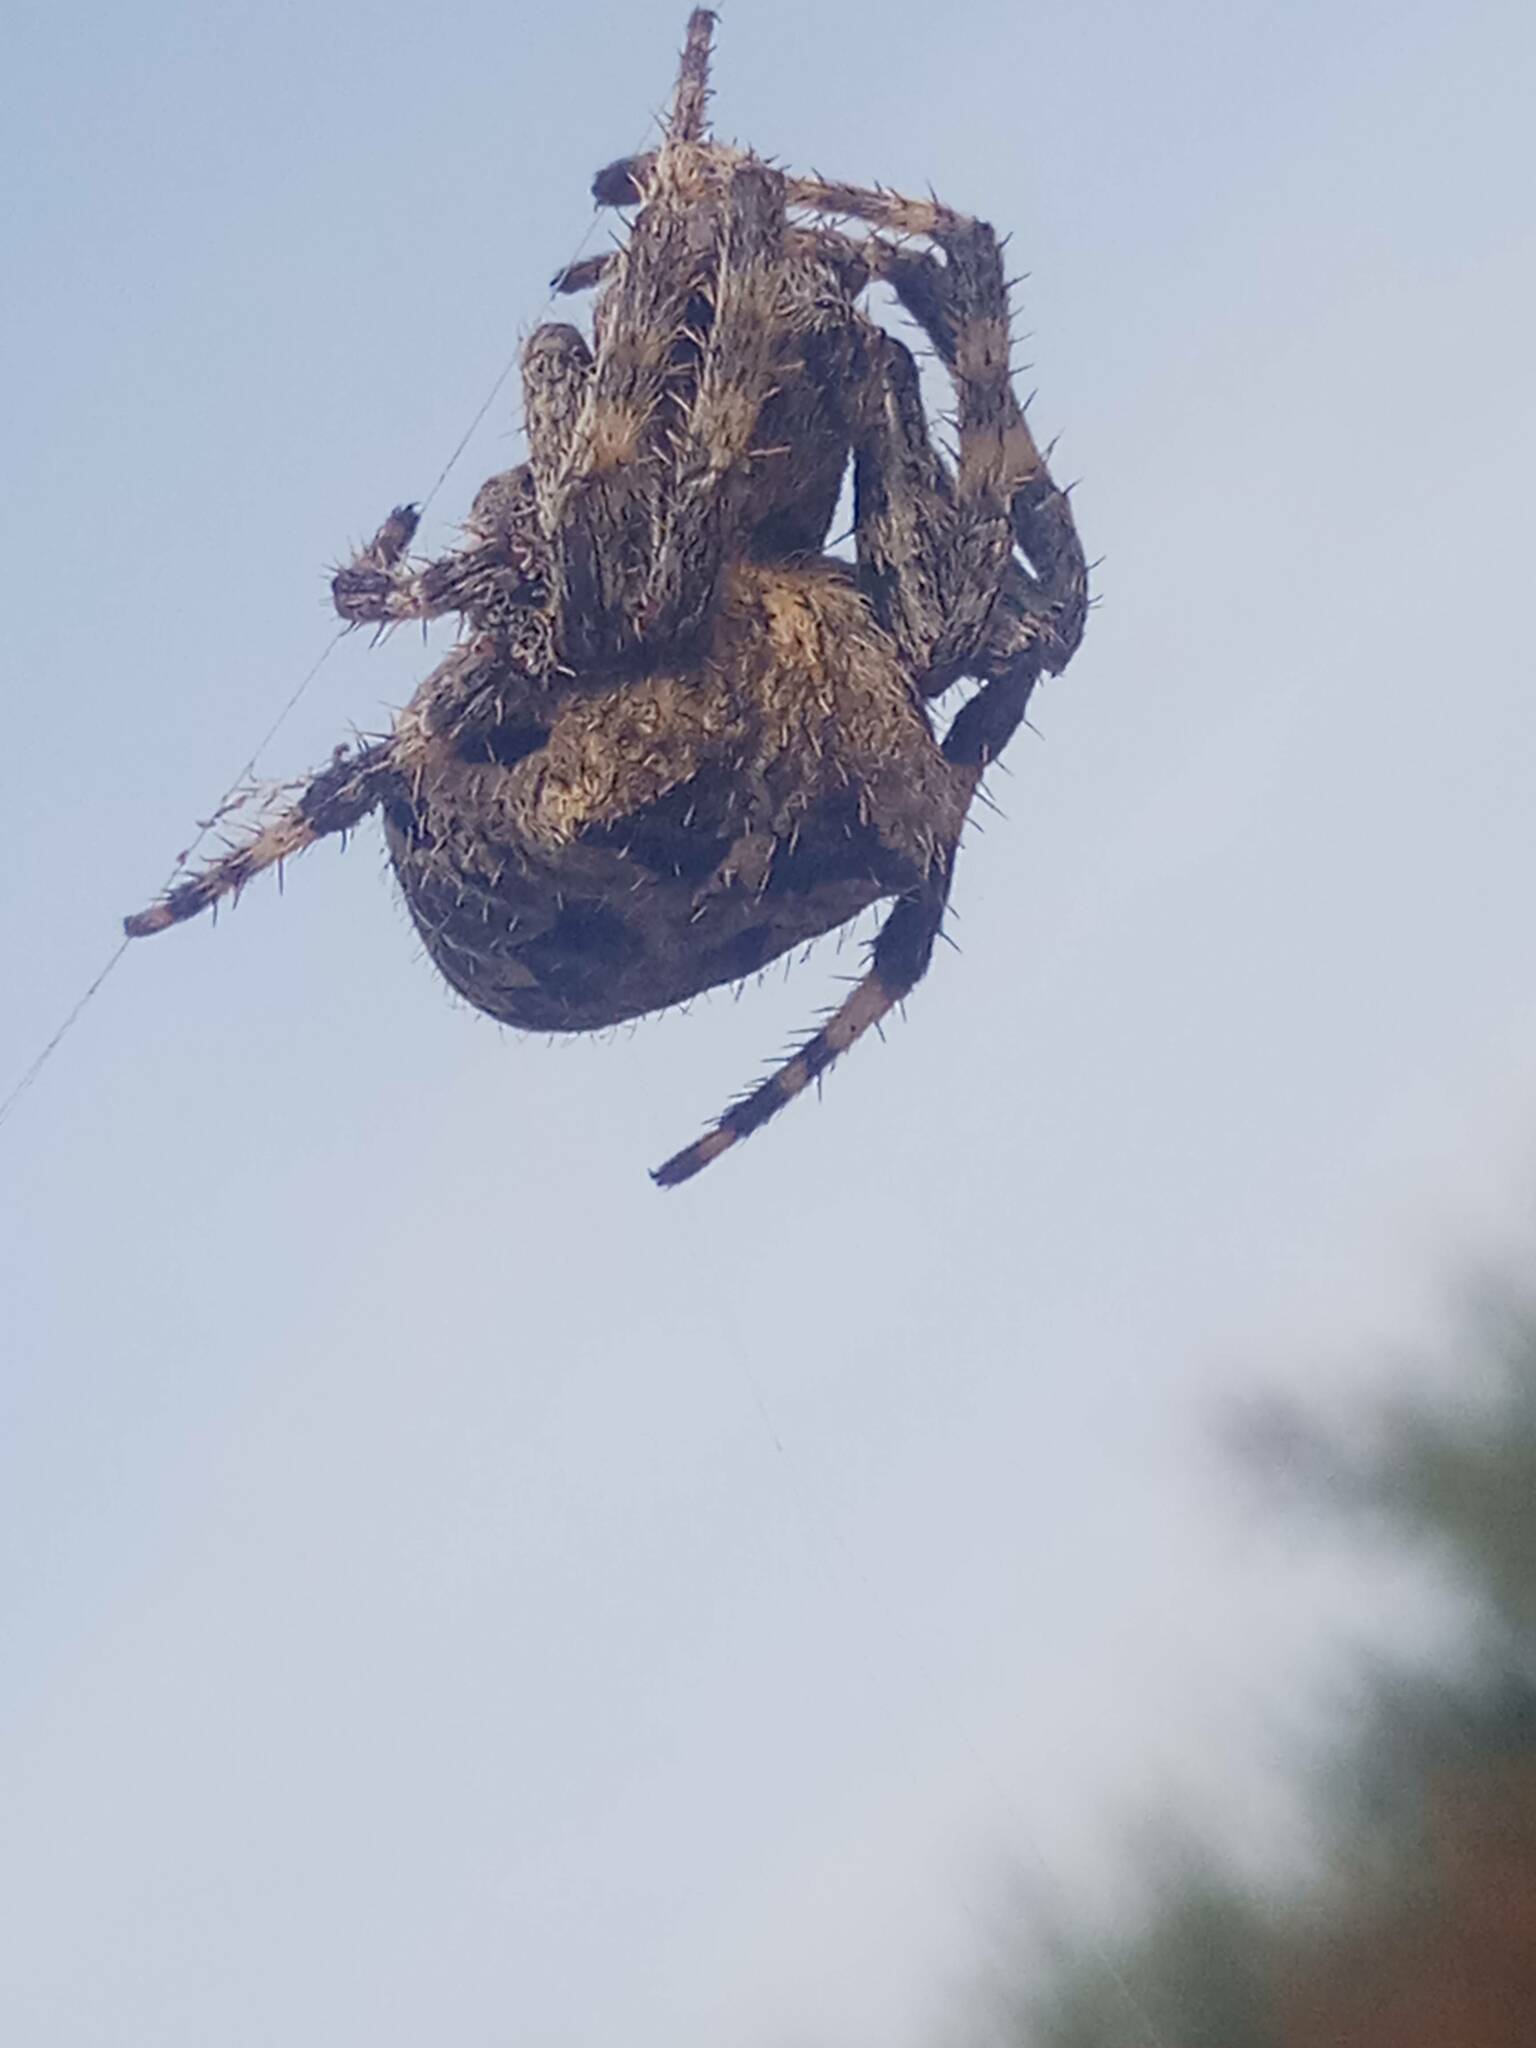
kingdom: Animalia
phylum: Arthropoda
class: Arachnida
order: Araneae
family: Araneidae
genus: Araneus
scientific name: Araneus angulatus
